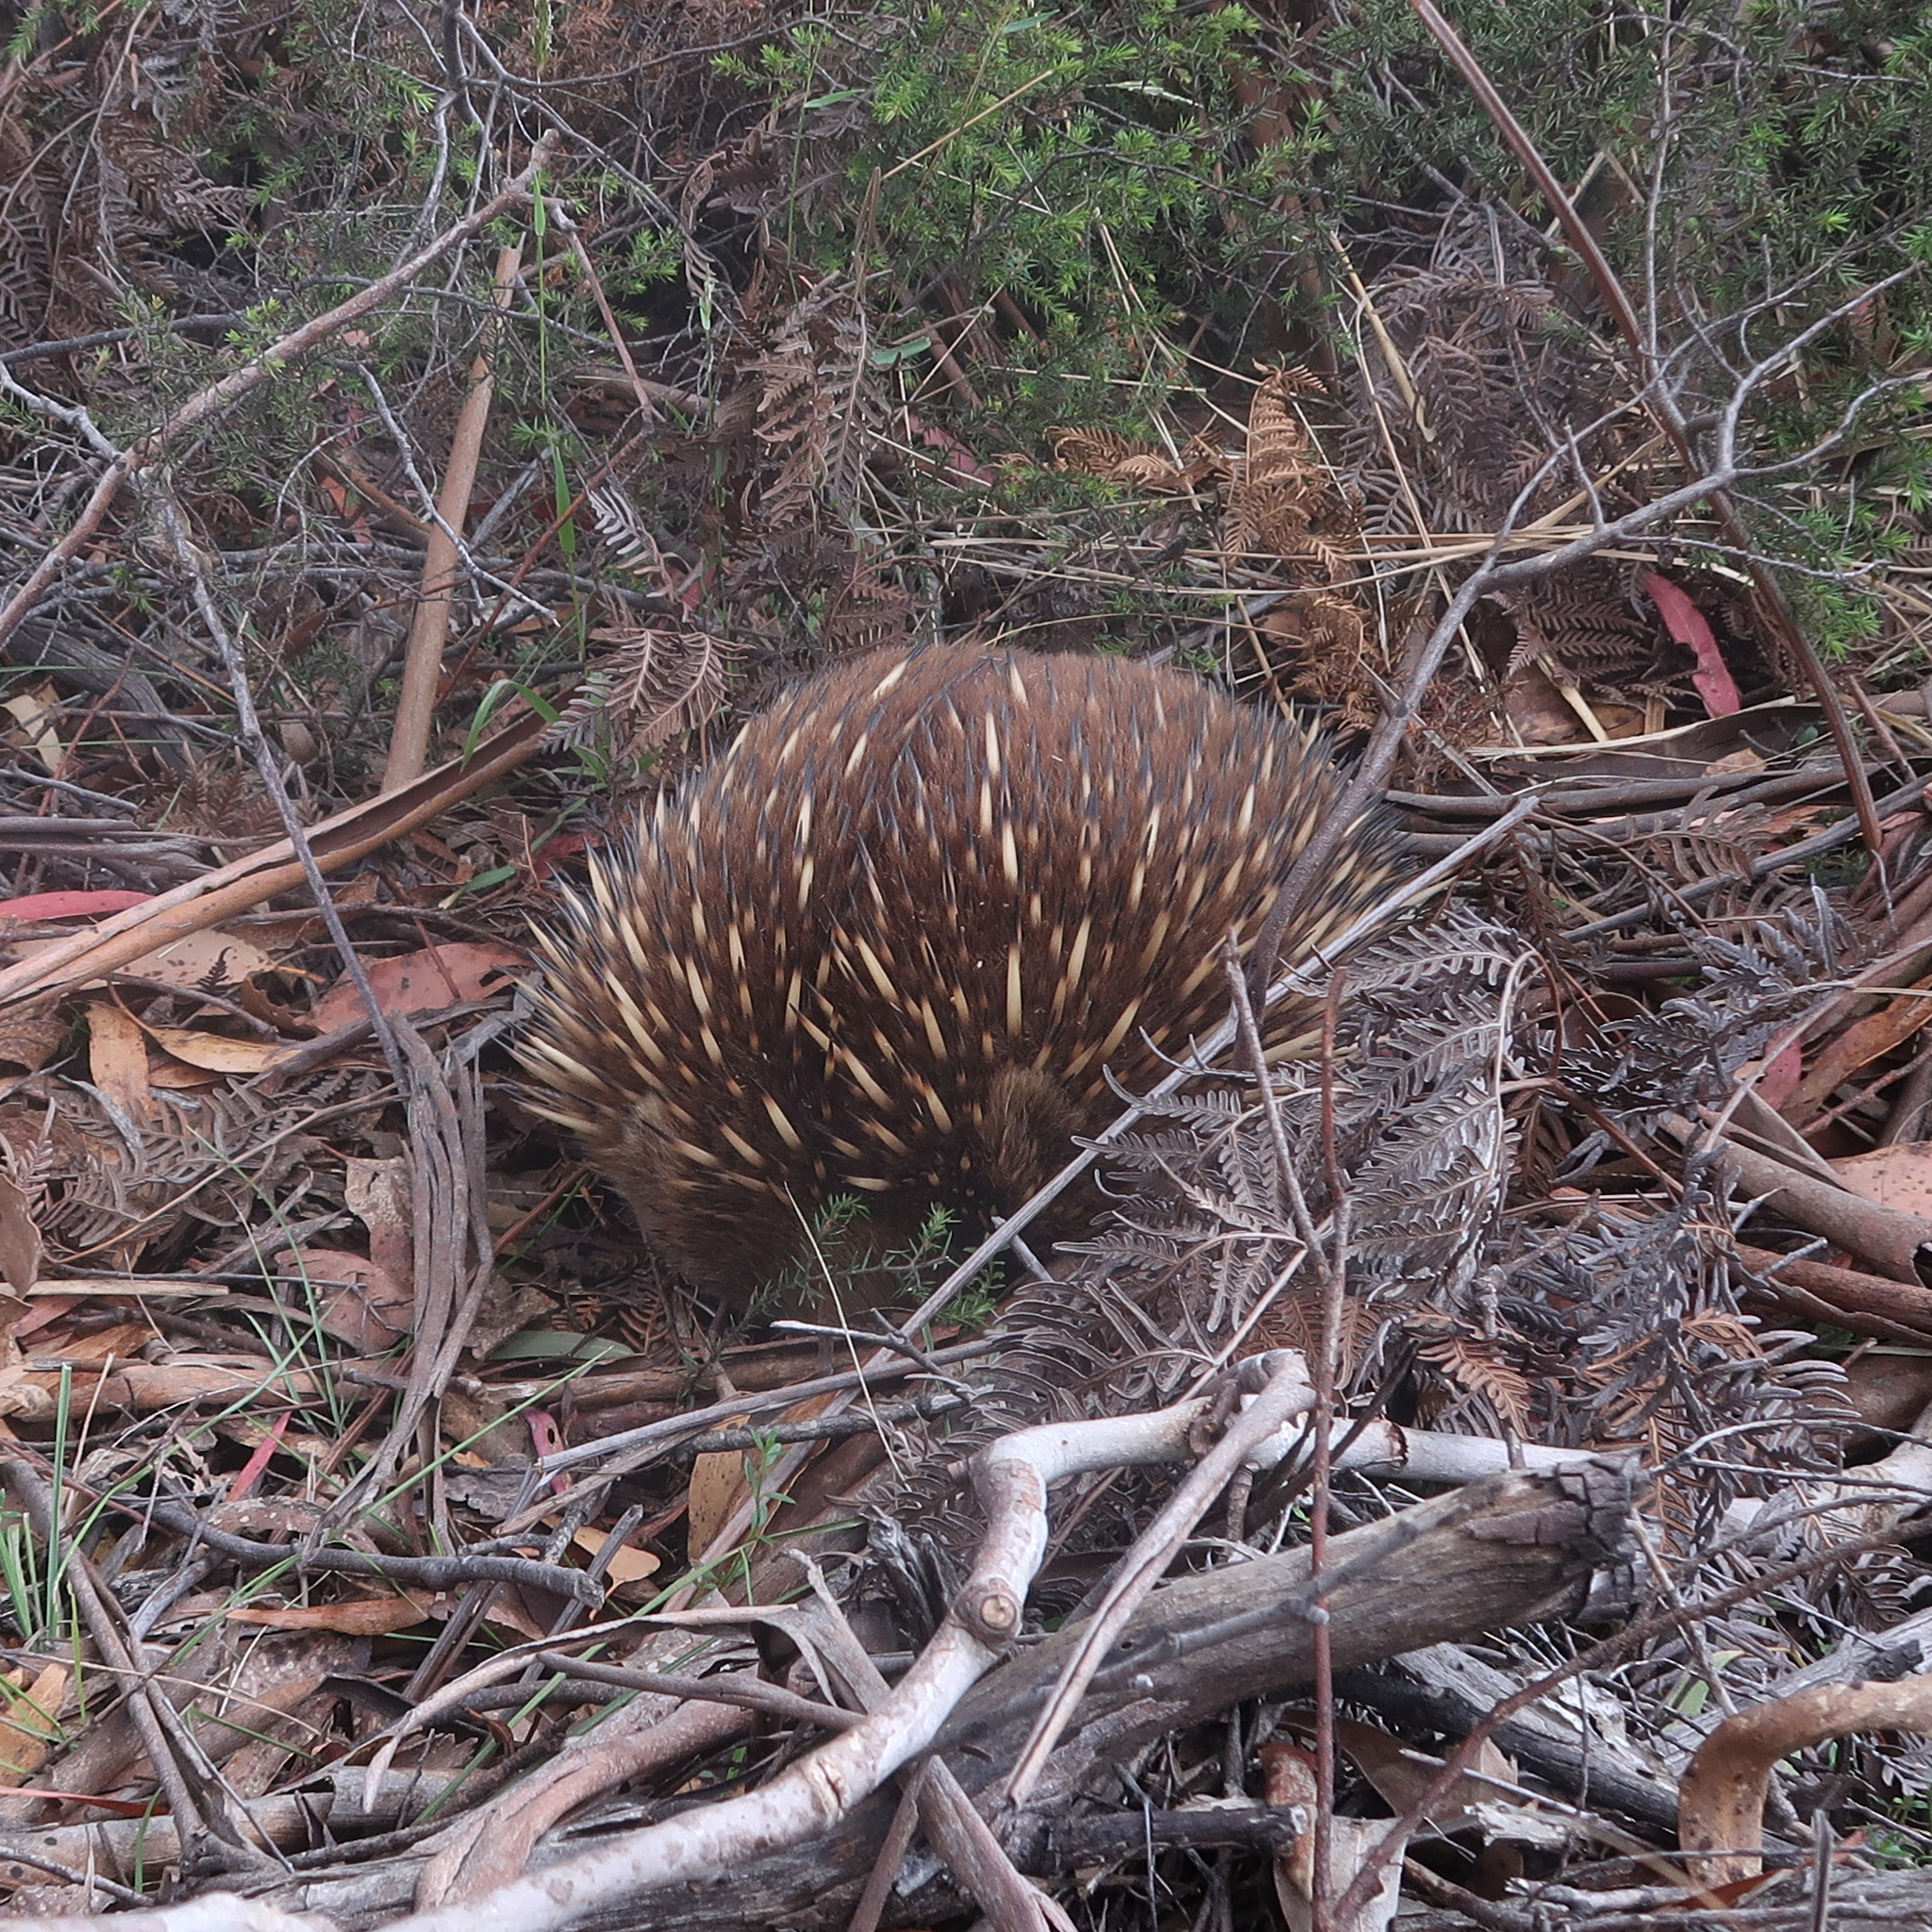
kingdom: Animalia
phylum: Chordata
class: Mammalia
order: Monotremata
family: Tachyglossidae
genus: Tachyglossus
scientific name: Tachyglossus aculeatus
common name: Short-beaked echidna
